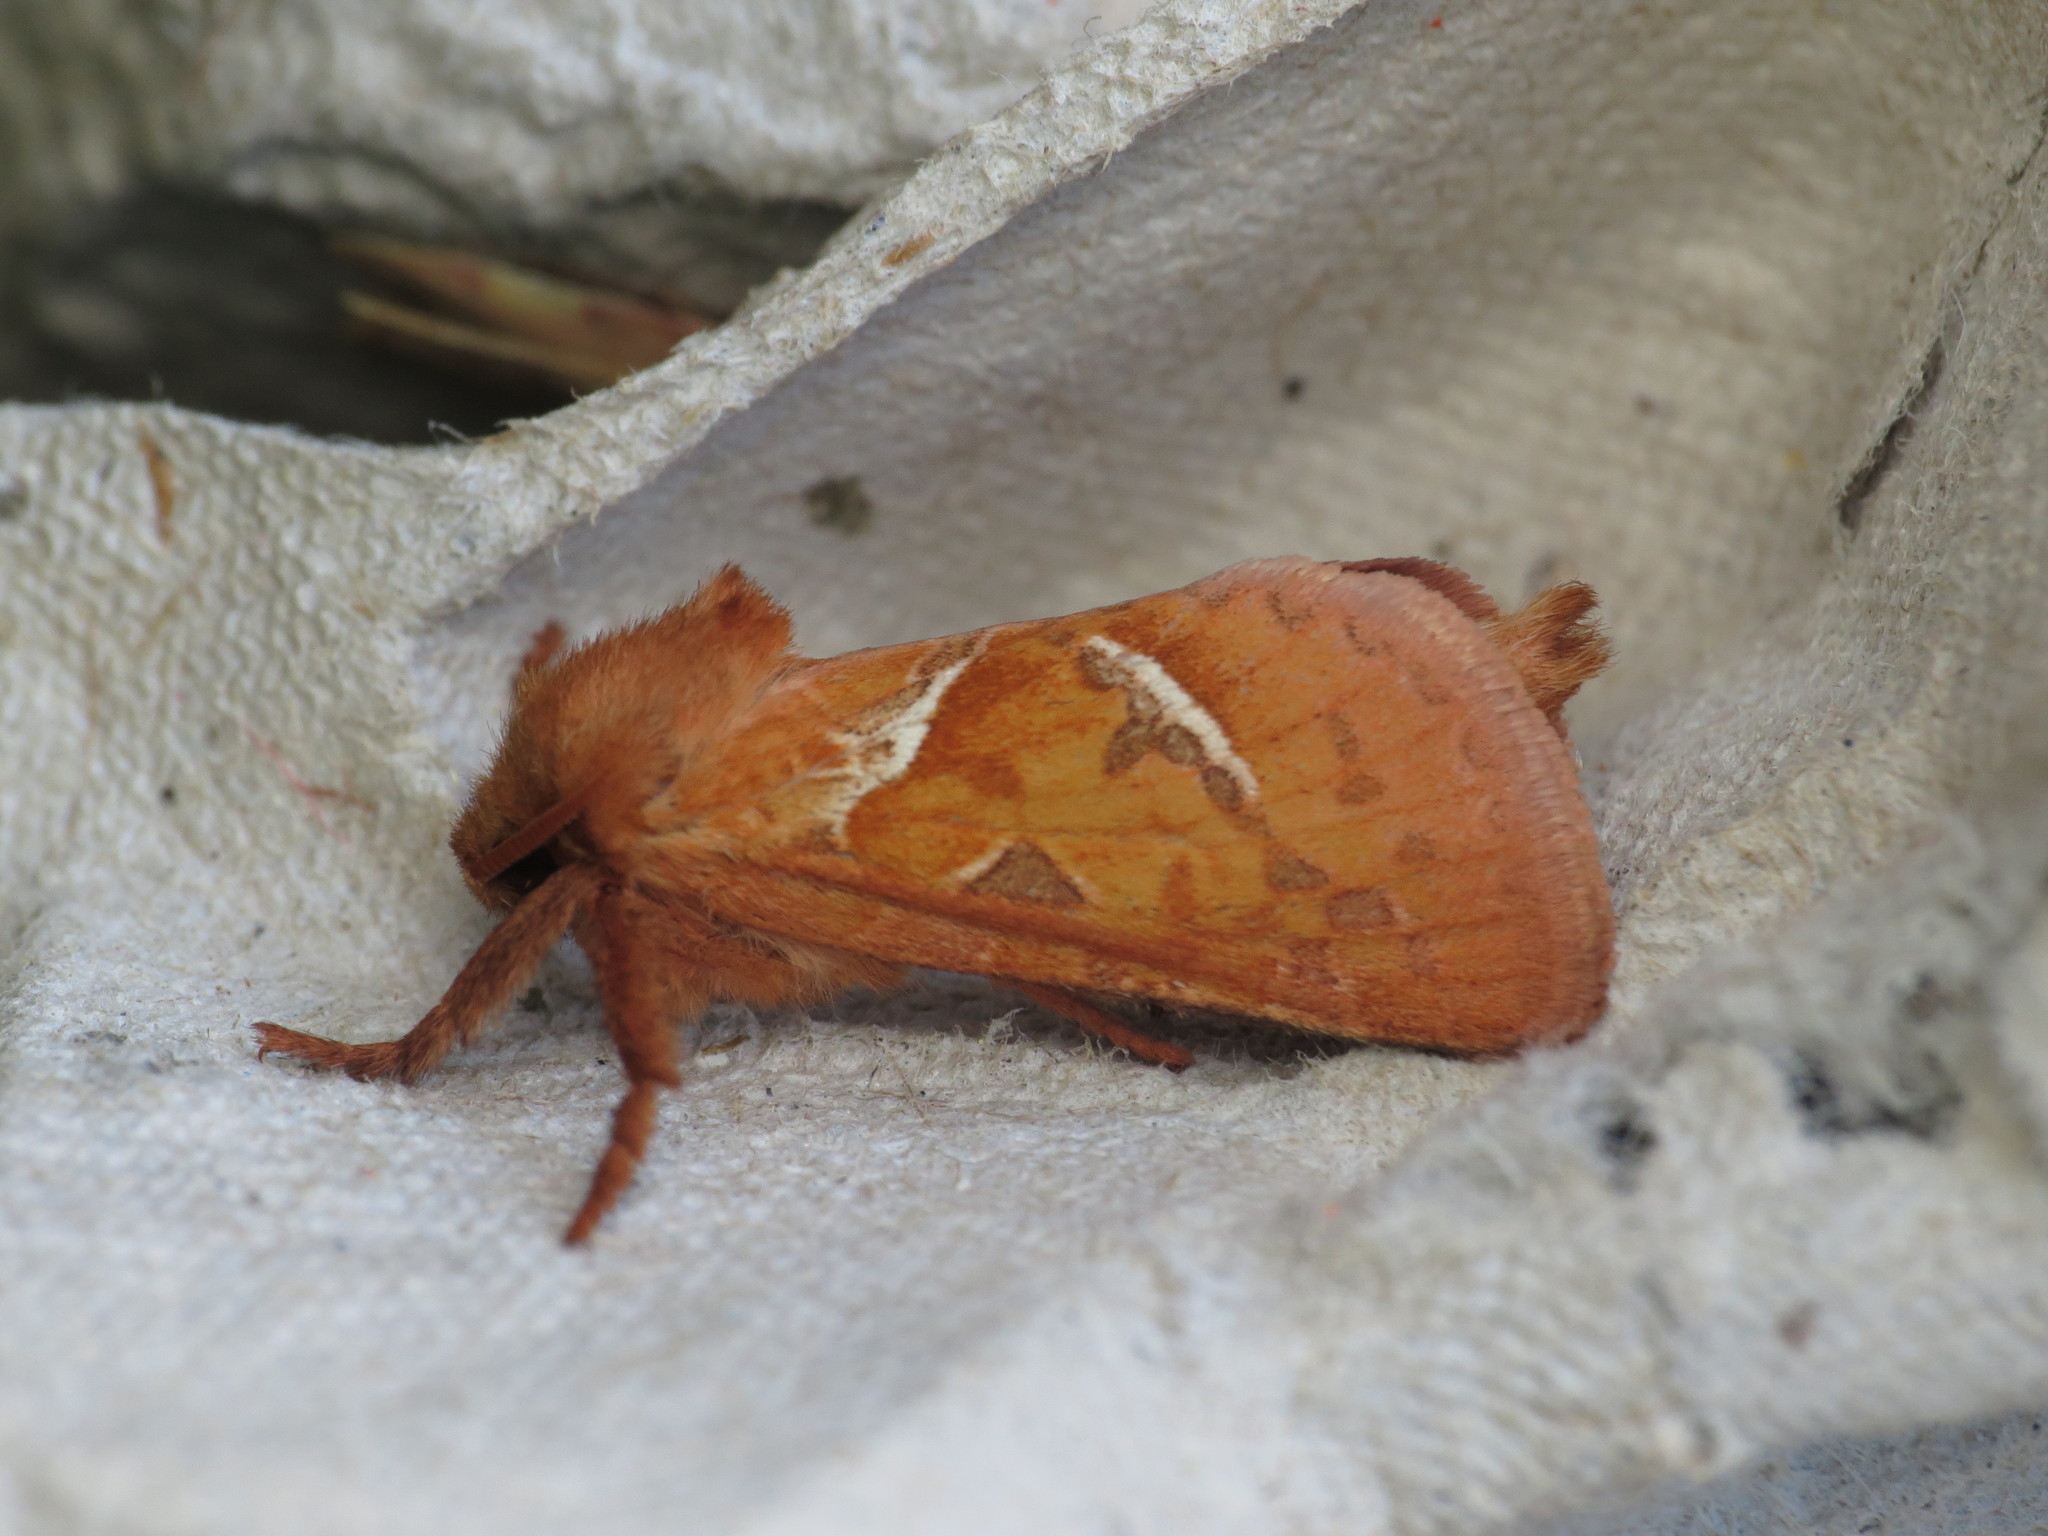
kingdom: Animalia
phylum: Arthropoda
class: Insecta
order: Lepidoptera
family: Hepialidae
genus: Triodia
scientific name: Triodia sylvina
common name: Orange swift
